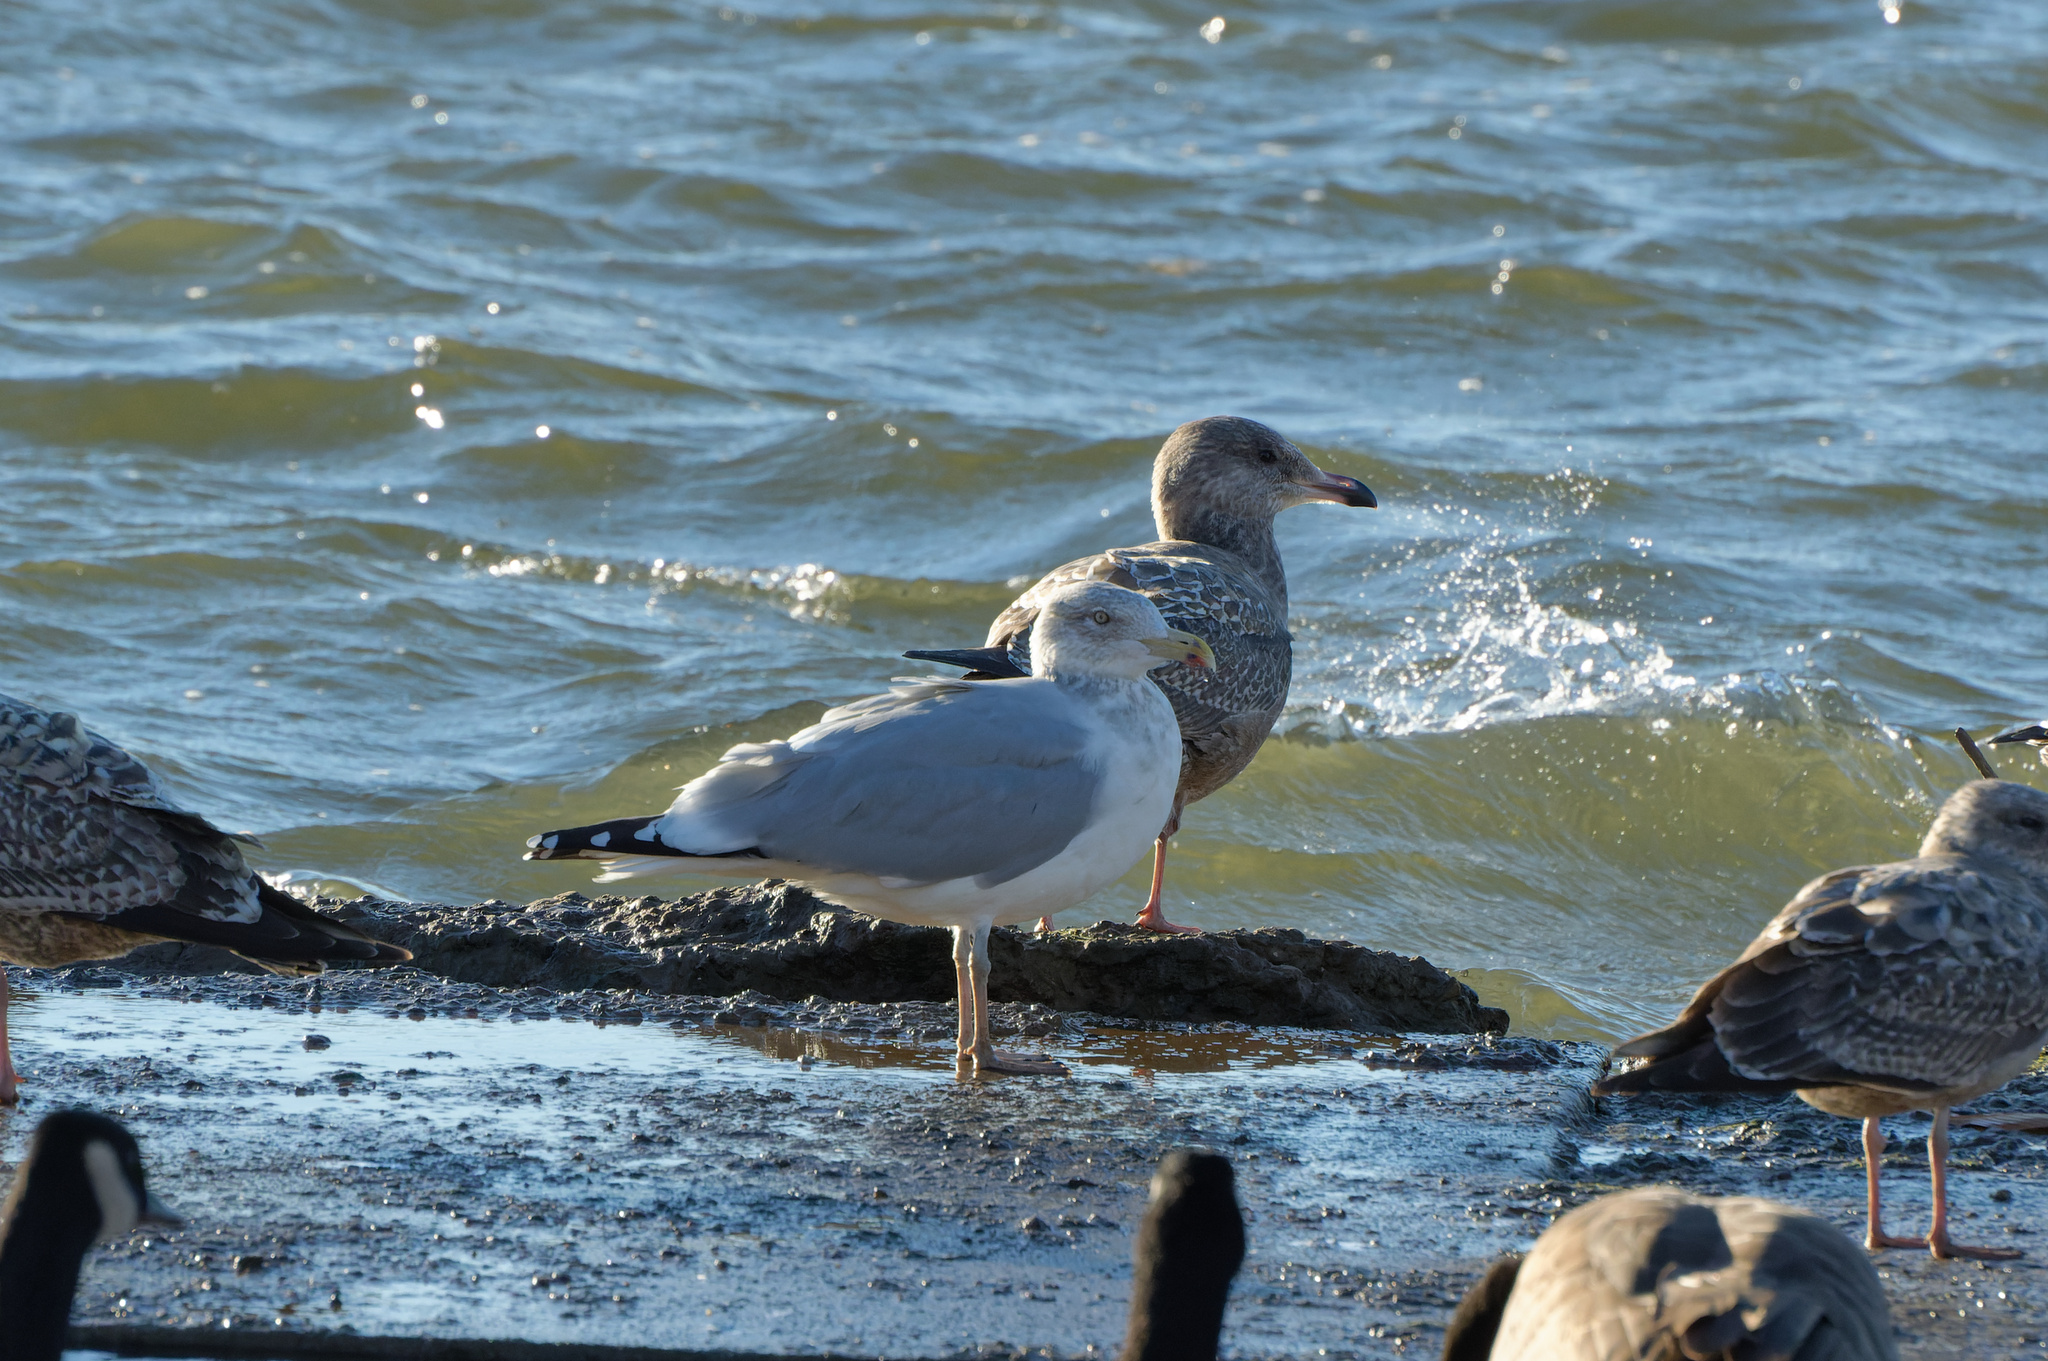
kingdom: Animalia
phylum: Chordata
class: Aves
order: Charadriiformes
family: Laridae
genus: Larus
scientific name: Larus smithsonianus
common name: American herring gull
